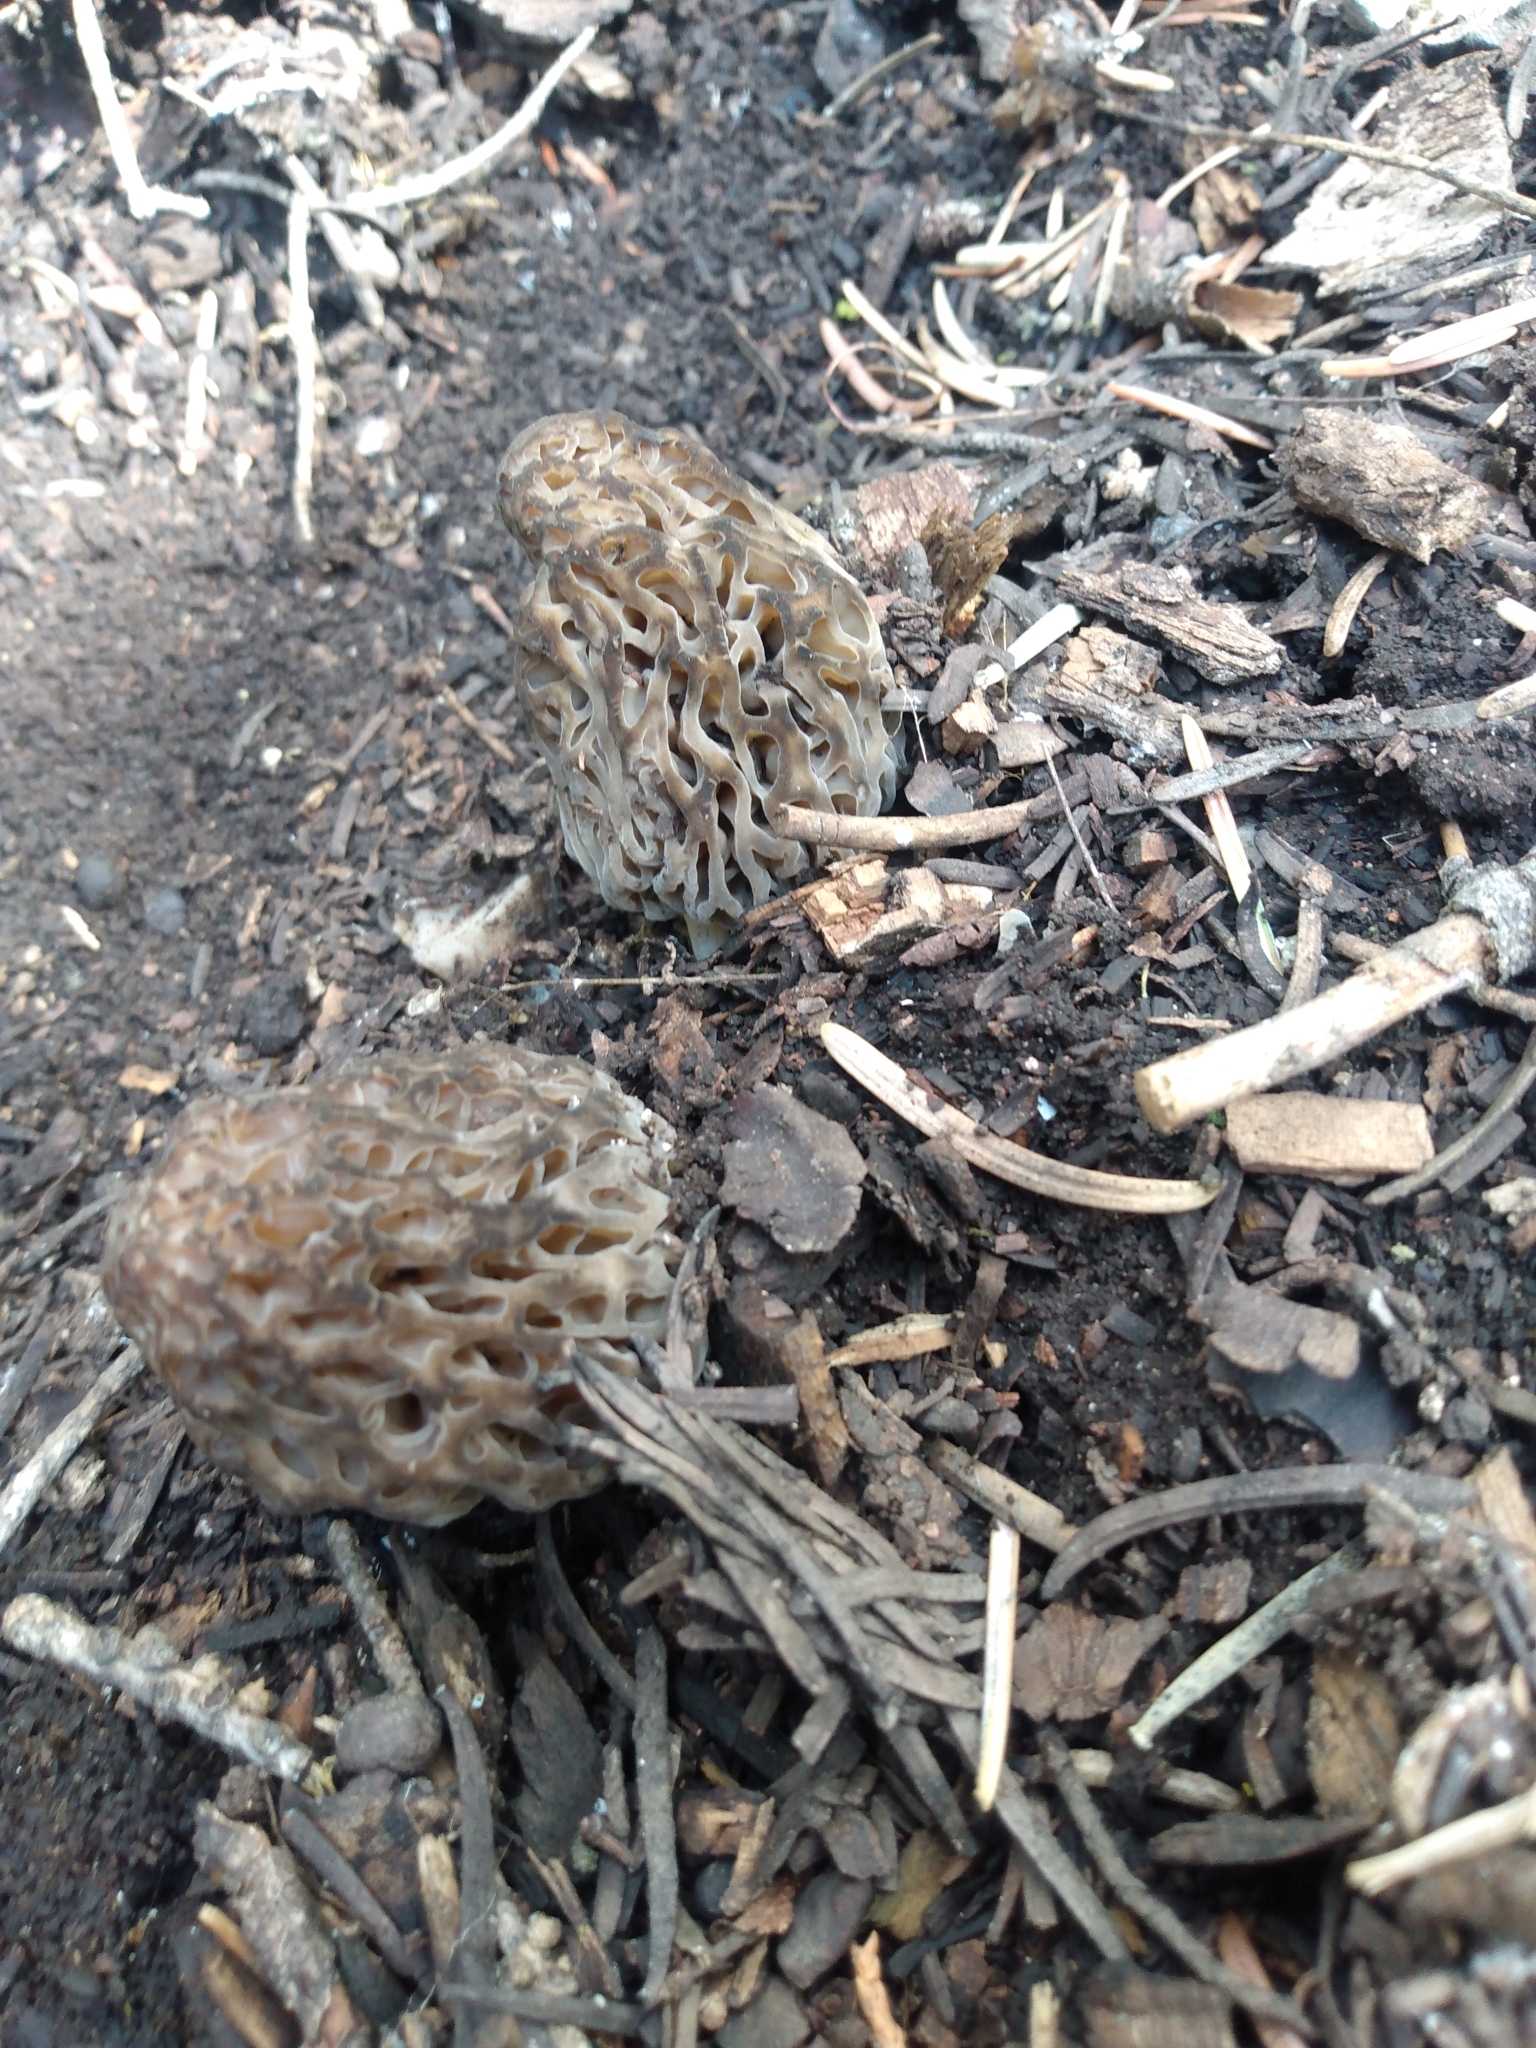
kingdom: Fungi
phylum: Ascomycota
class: Pezizomycetes
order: Pezizales
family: Morchellaceae
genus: Morchella
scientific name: Morchella snyderi
